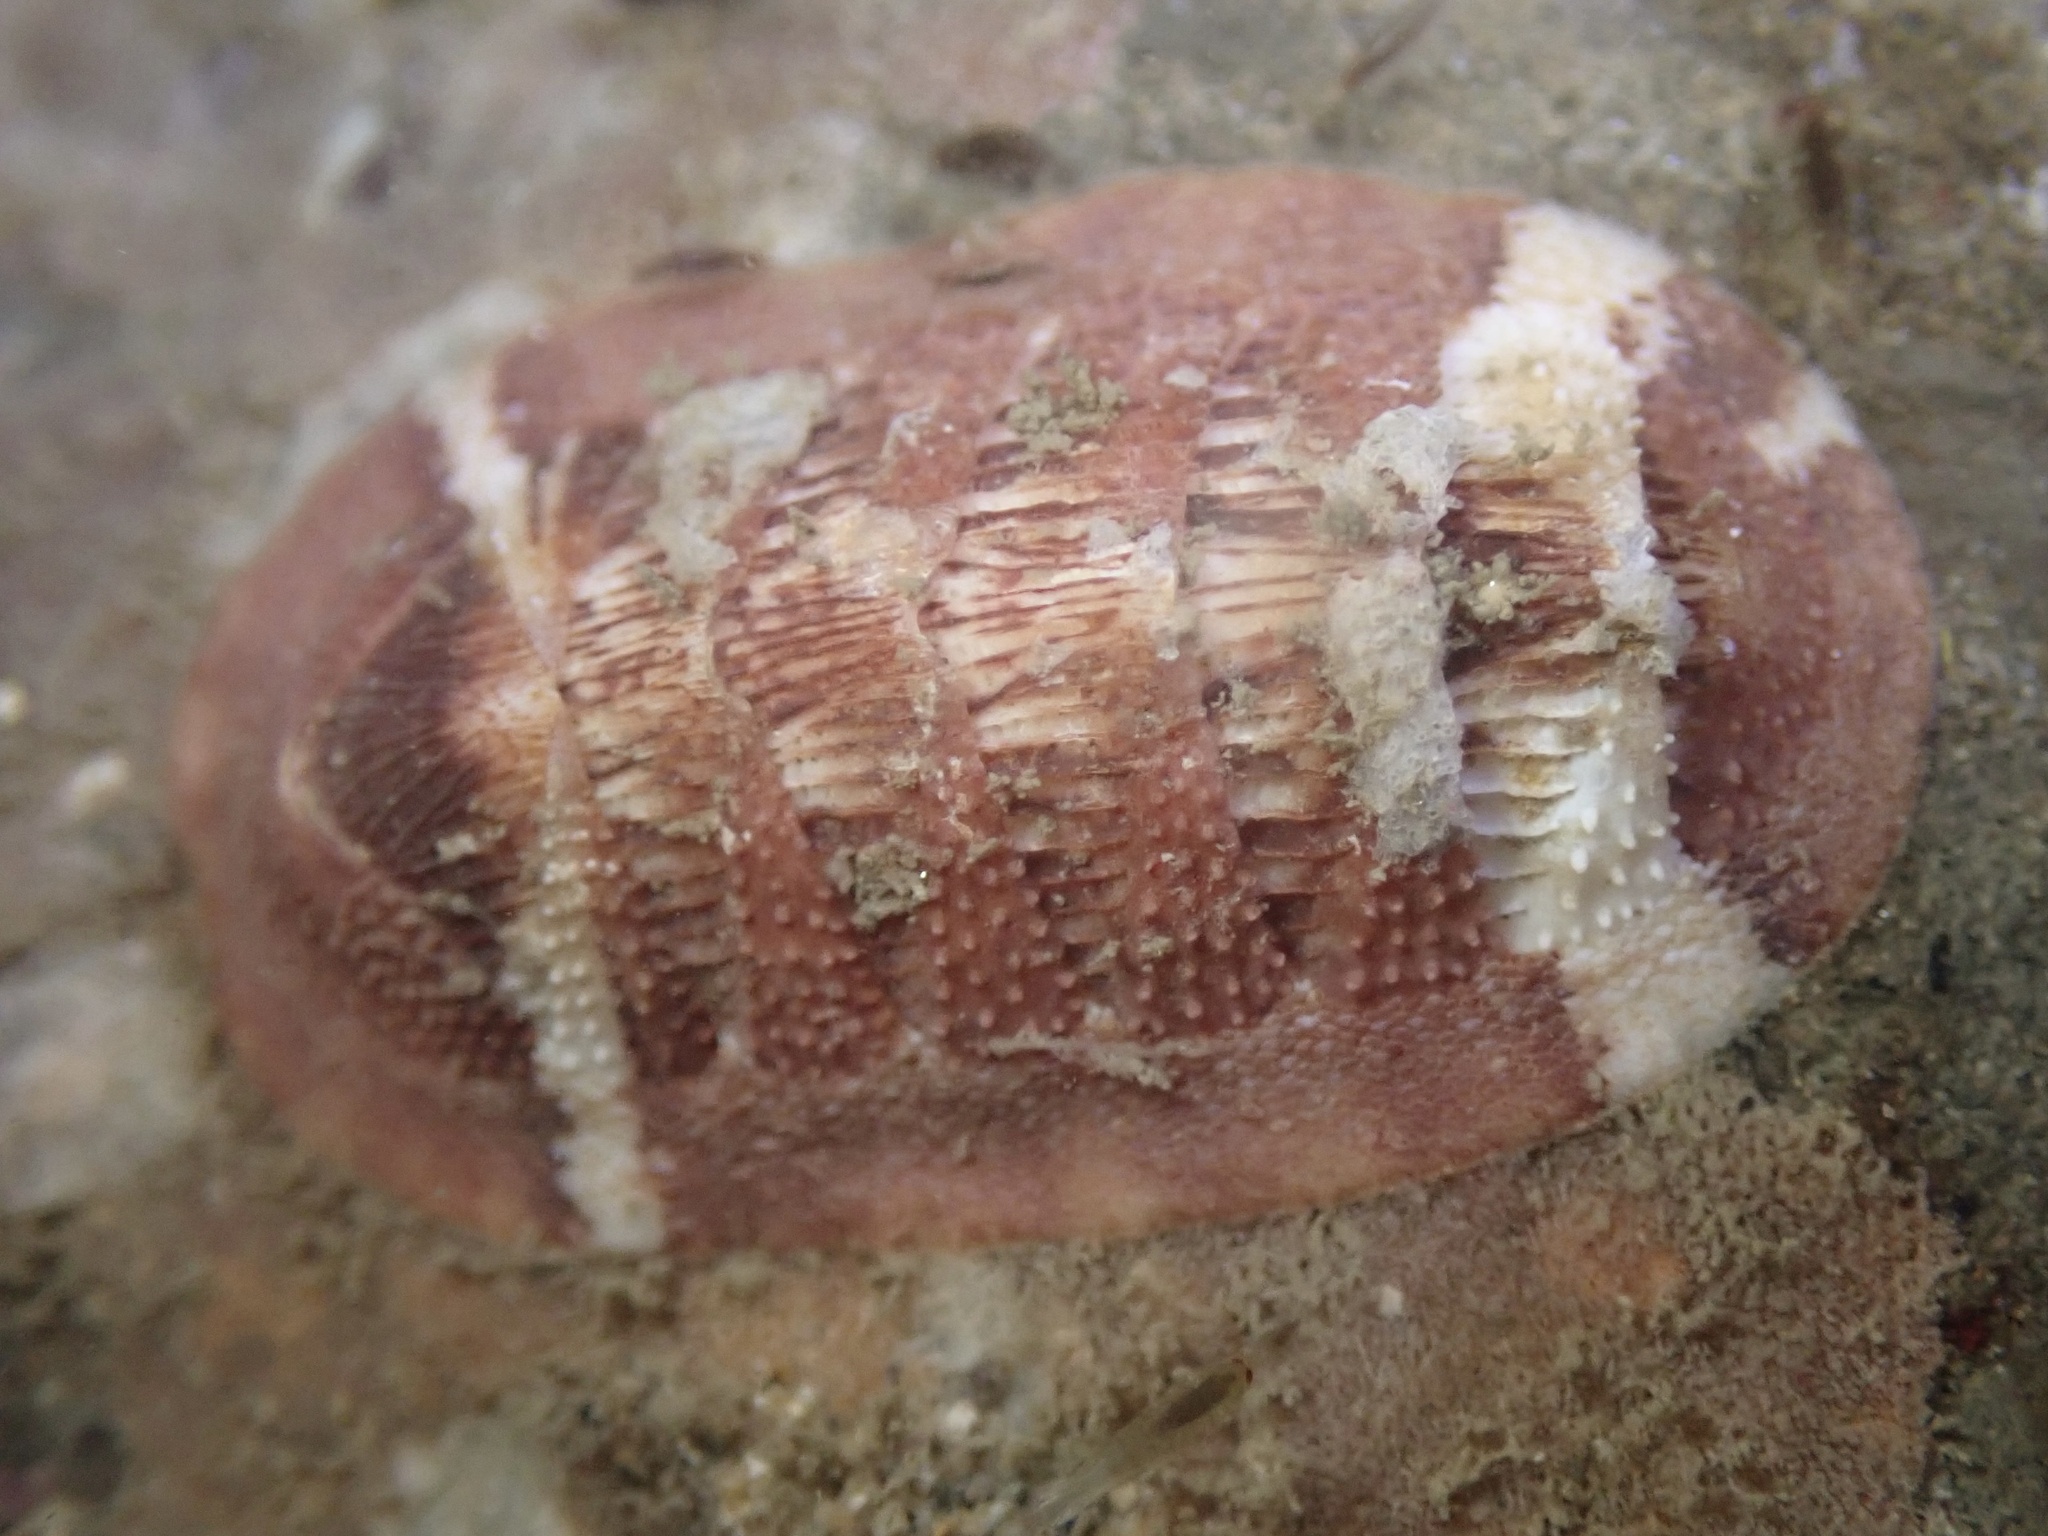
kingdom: Animalia
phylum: Mollusca
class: Polyplacophora
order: Chitonida
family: Ischnochitonidae
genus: Lepidozona
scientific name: Lepidozona mertensii
